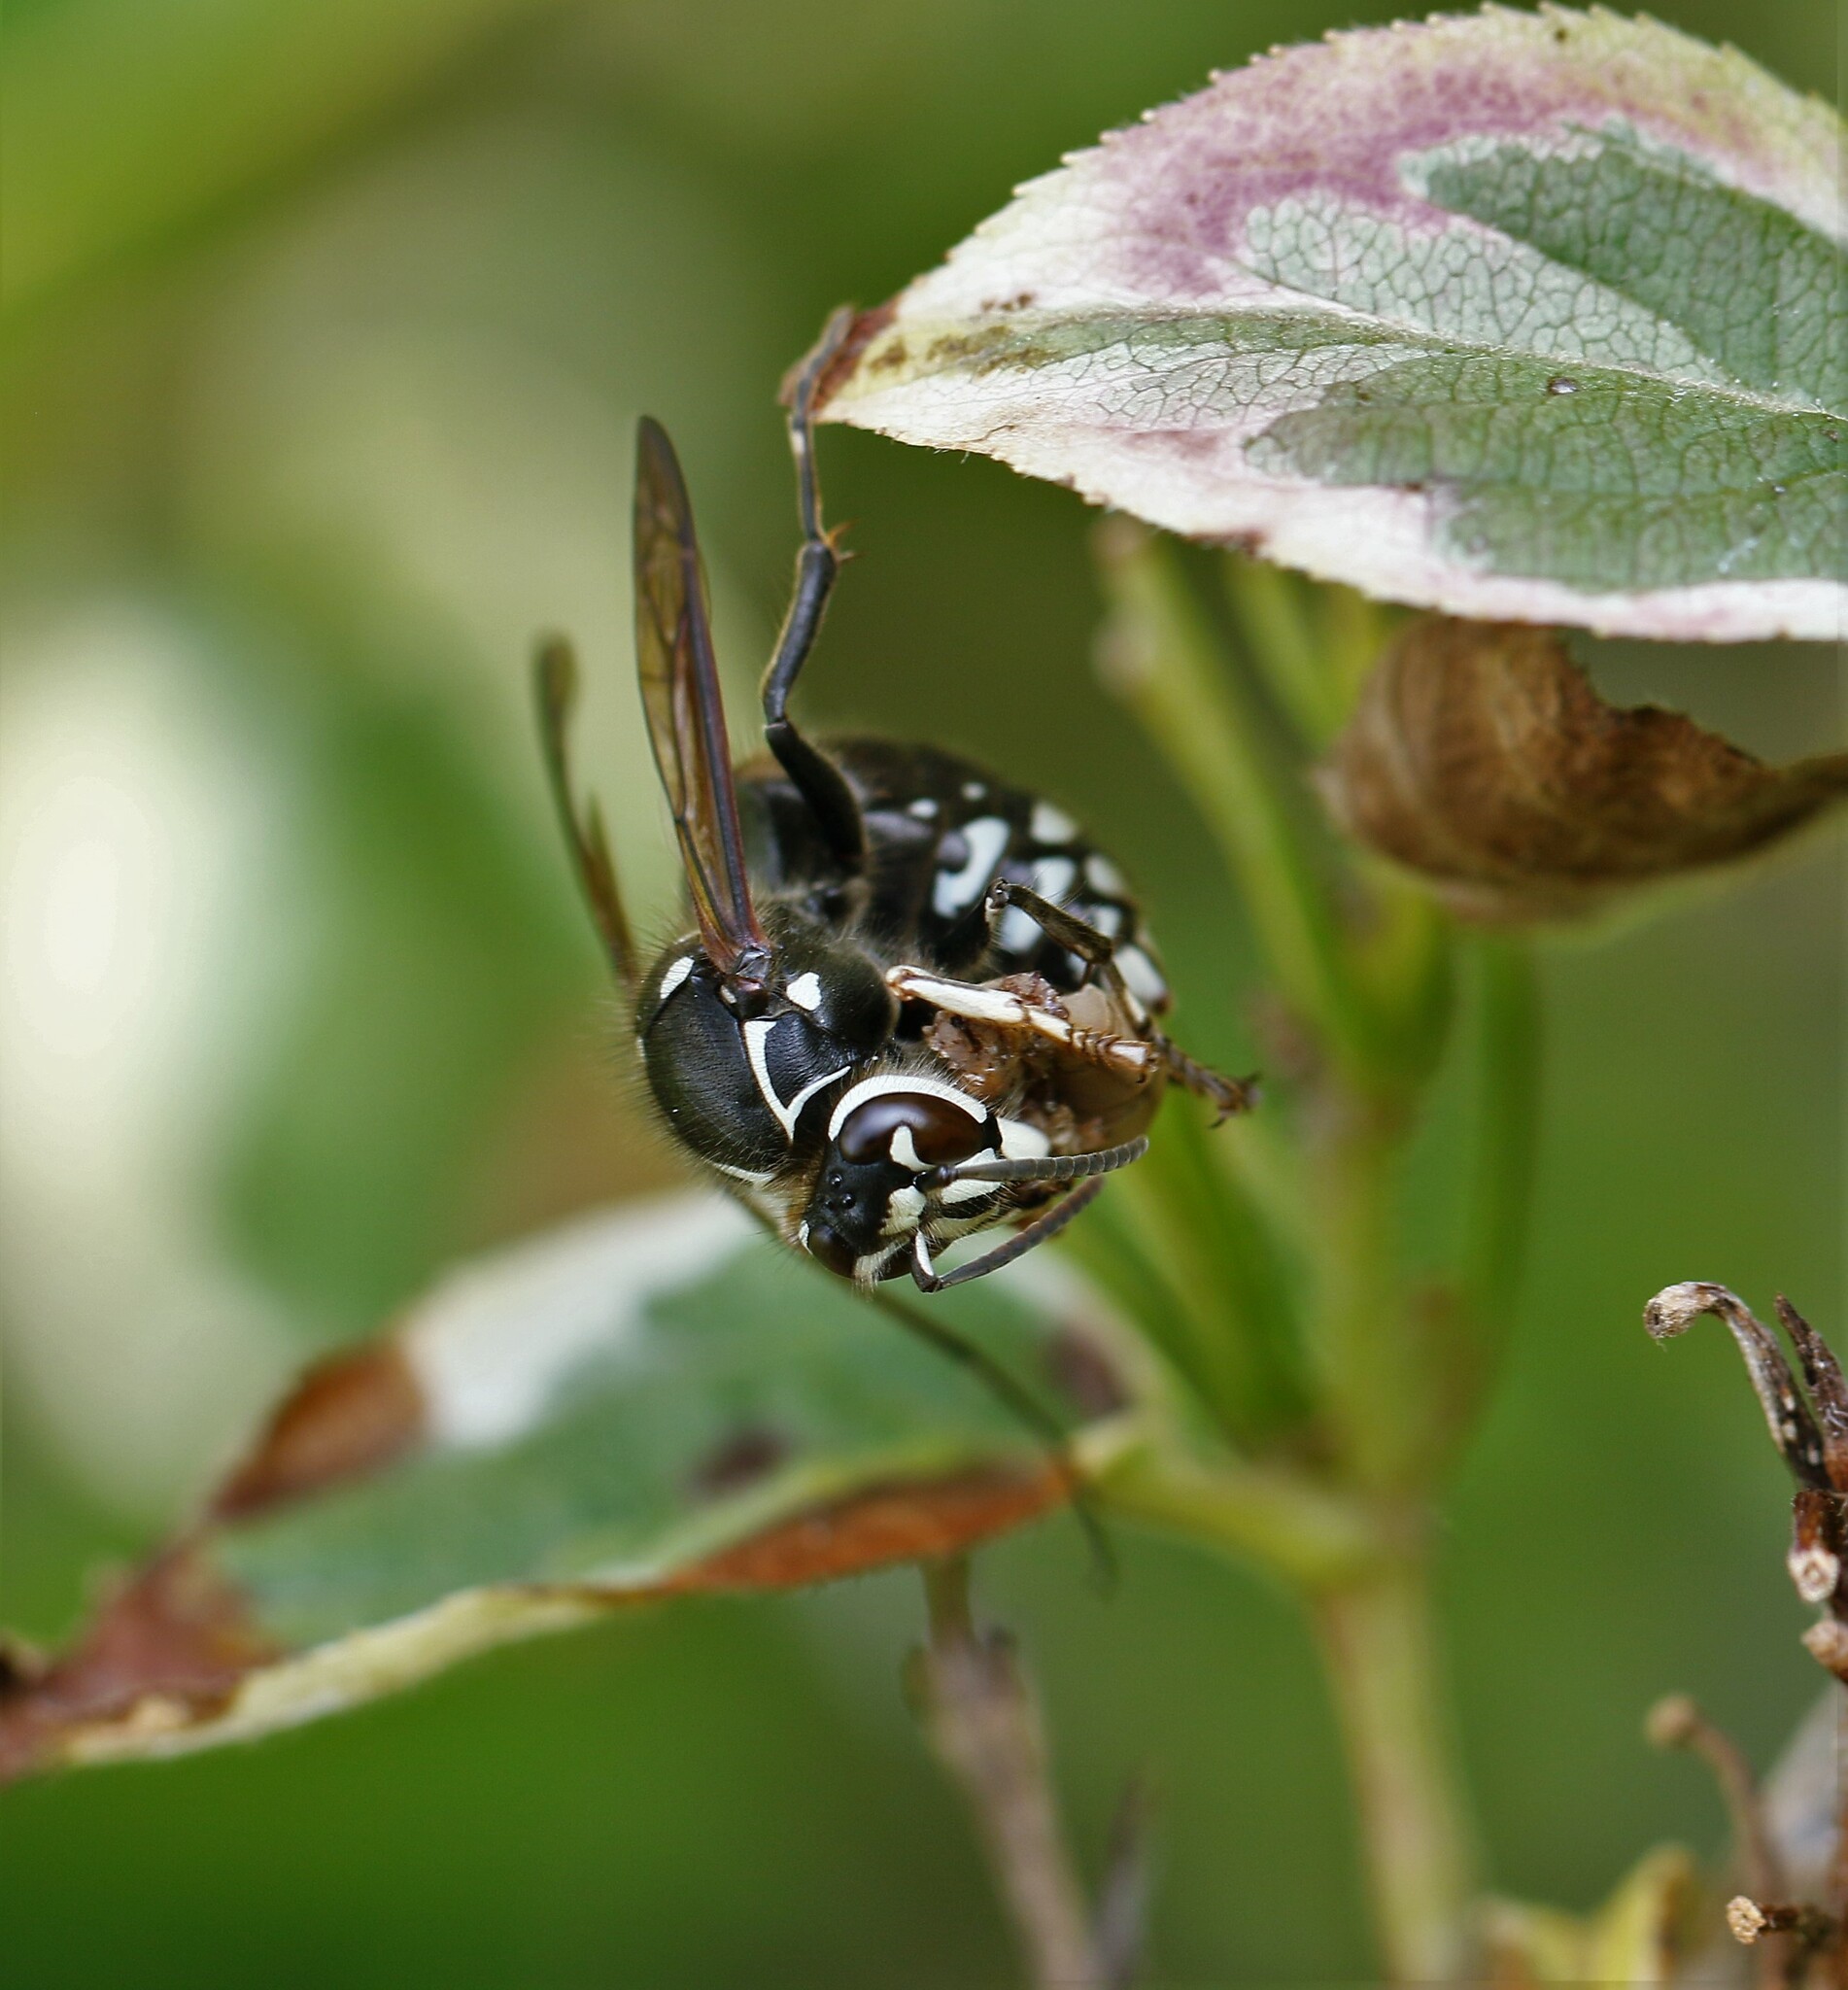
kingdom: Animalia
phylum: Arthropoda
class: Insecta
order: Hymenoptera
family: Vespidae
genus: Dolichovespula
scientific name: Dolichovespula maculata
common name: Bald-faced hornet
